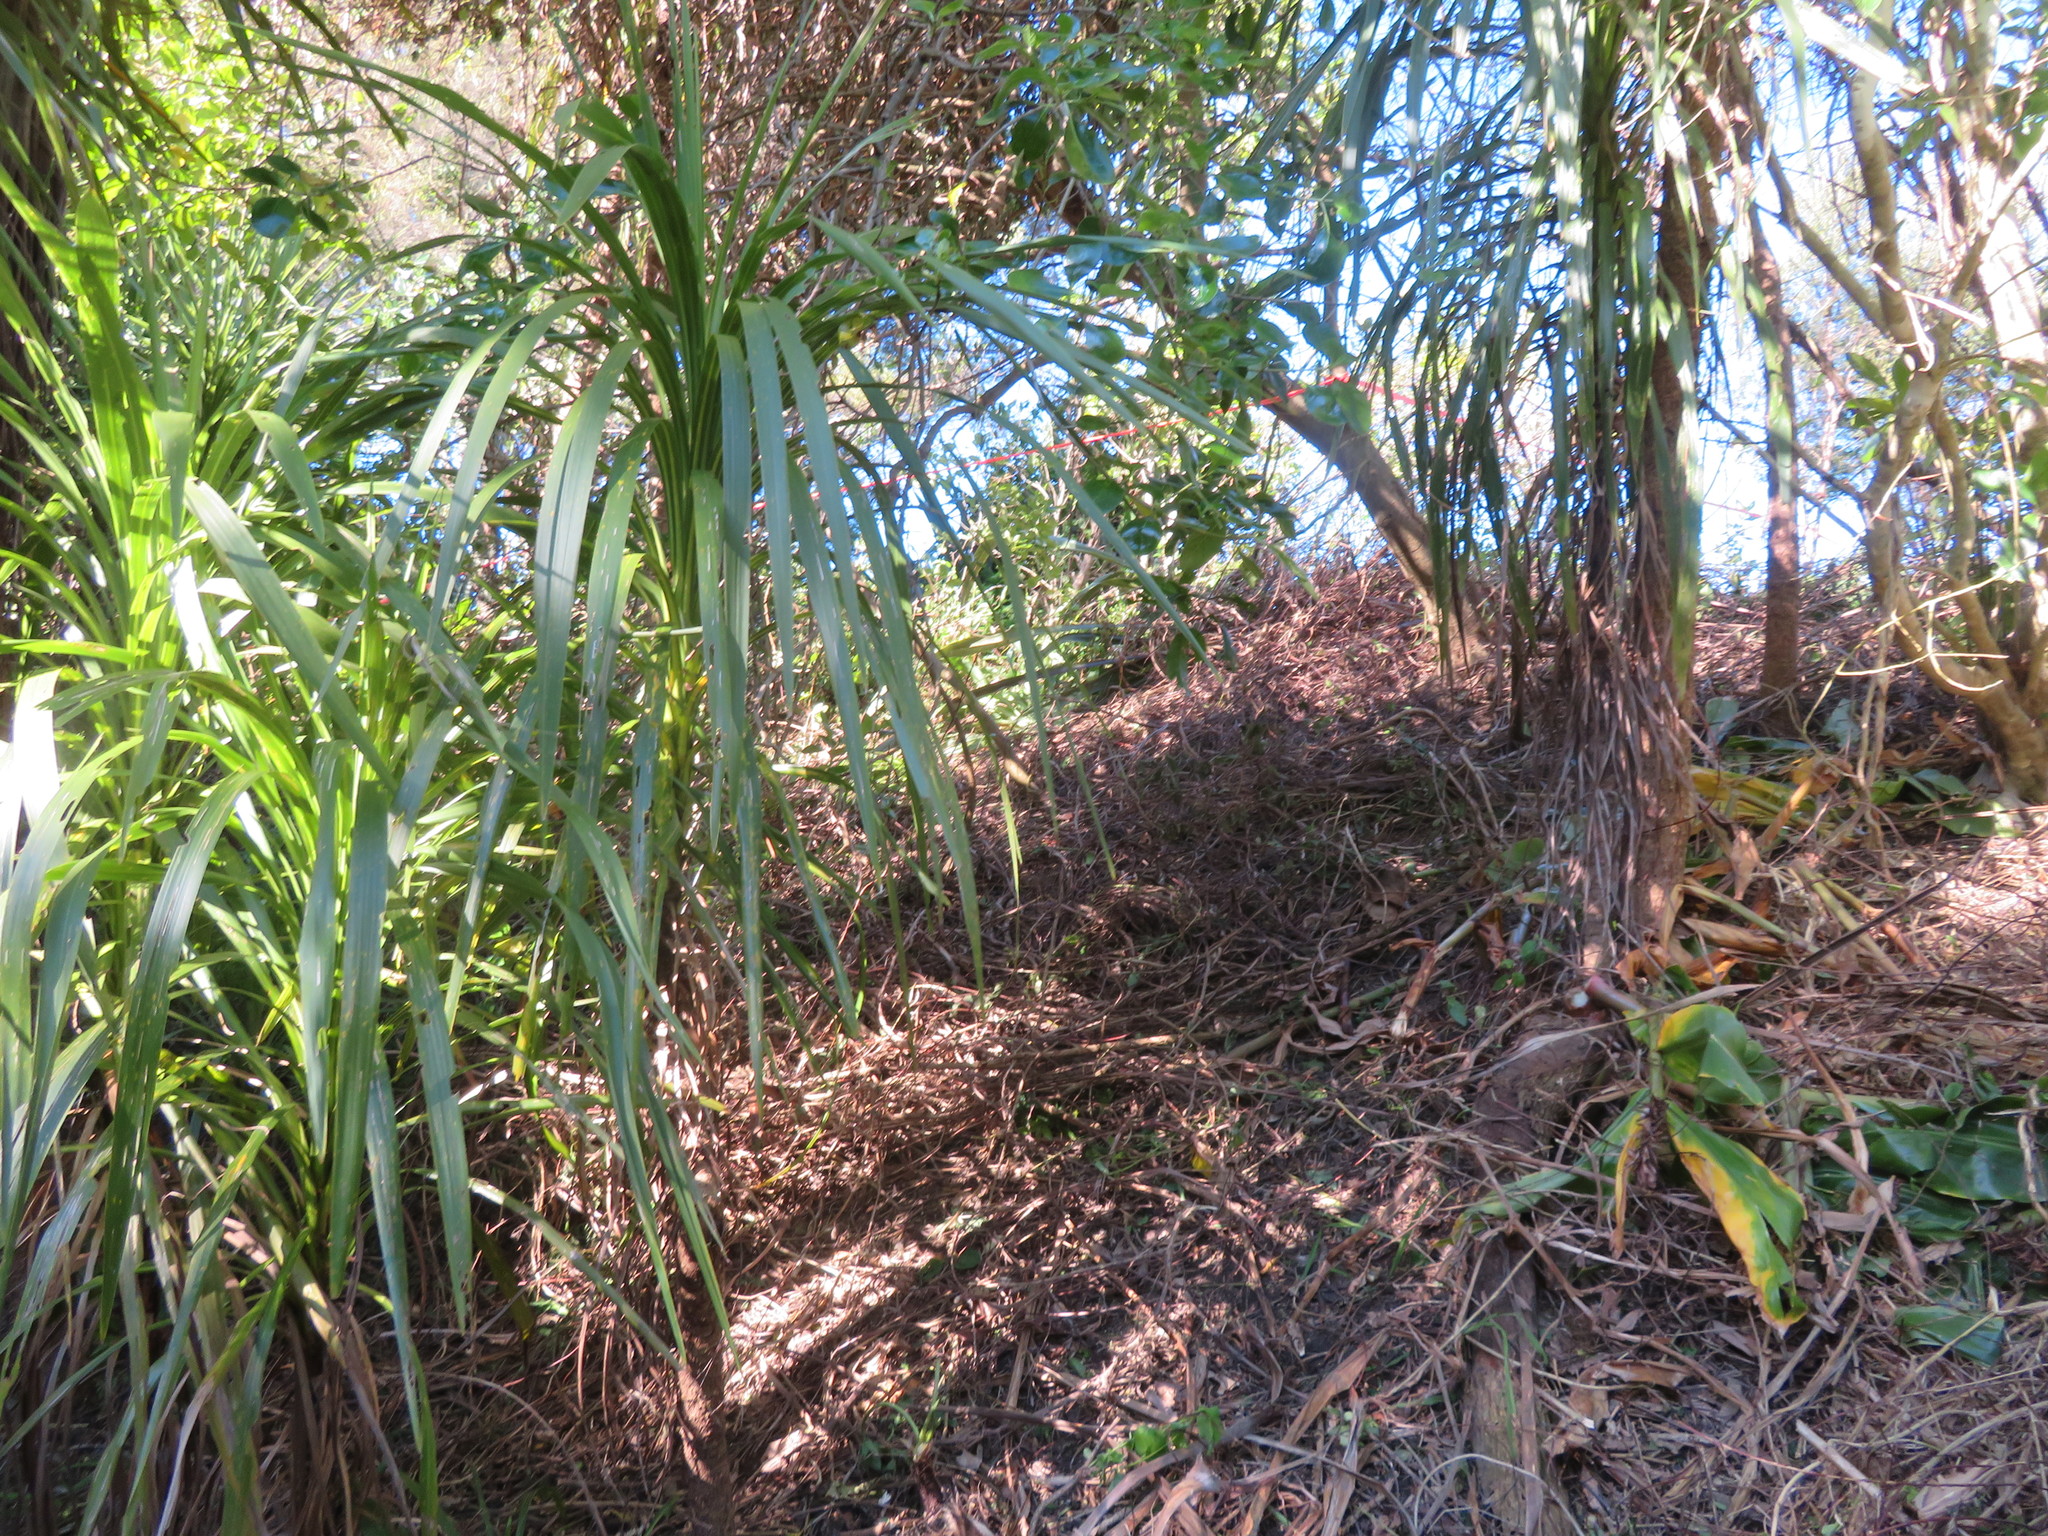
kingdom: Plantae
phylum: Tracheophyta
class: Liliopsida
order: Asparagales
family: Asparagaceae
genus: Cordyline
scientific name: Cordyline australis
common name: Cabbage-palm
